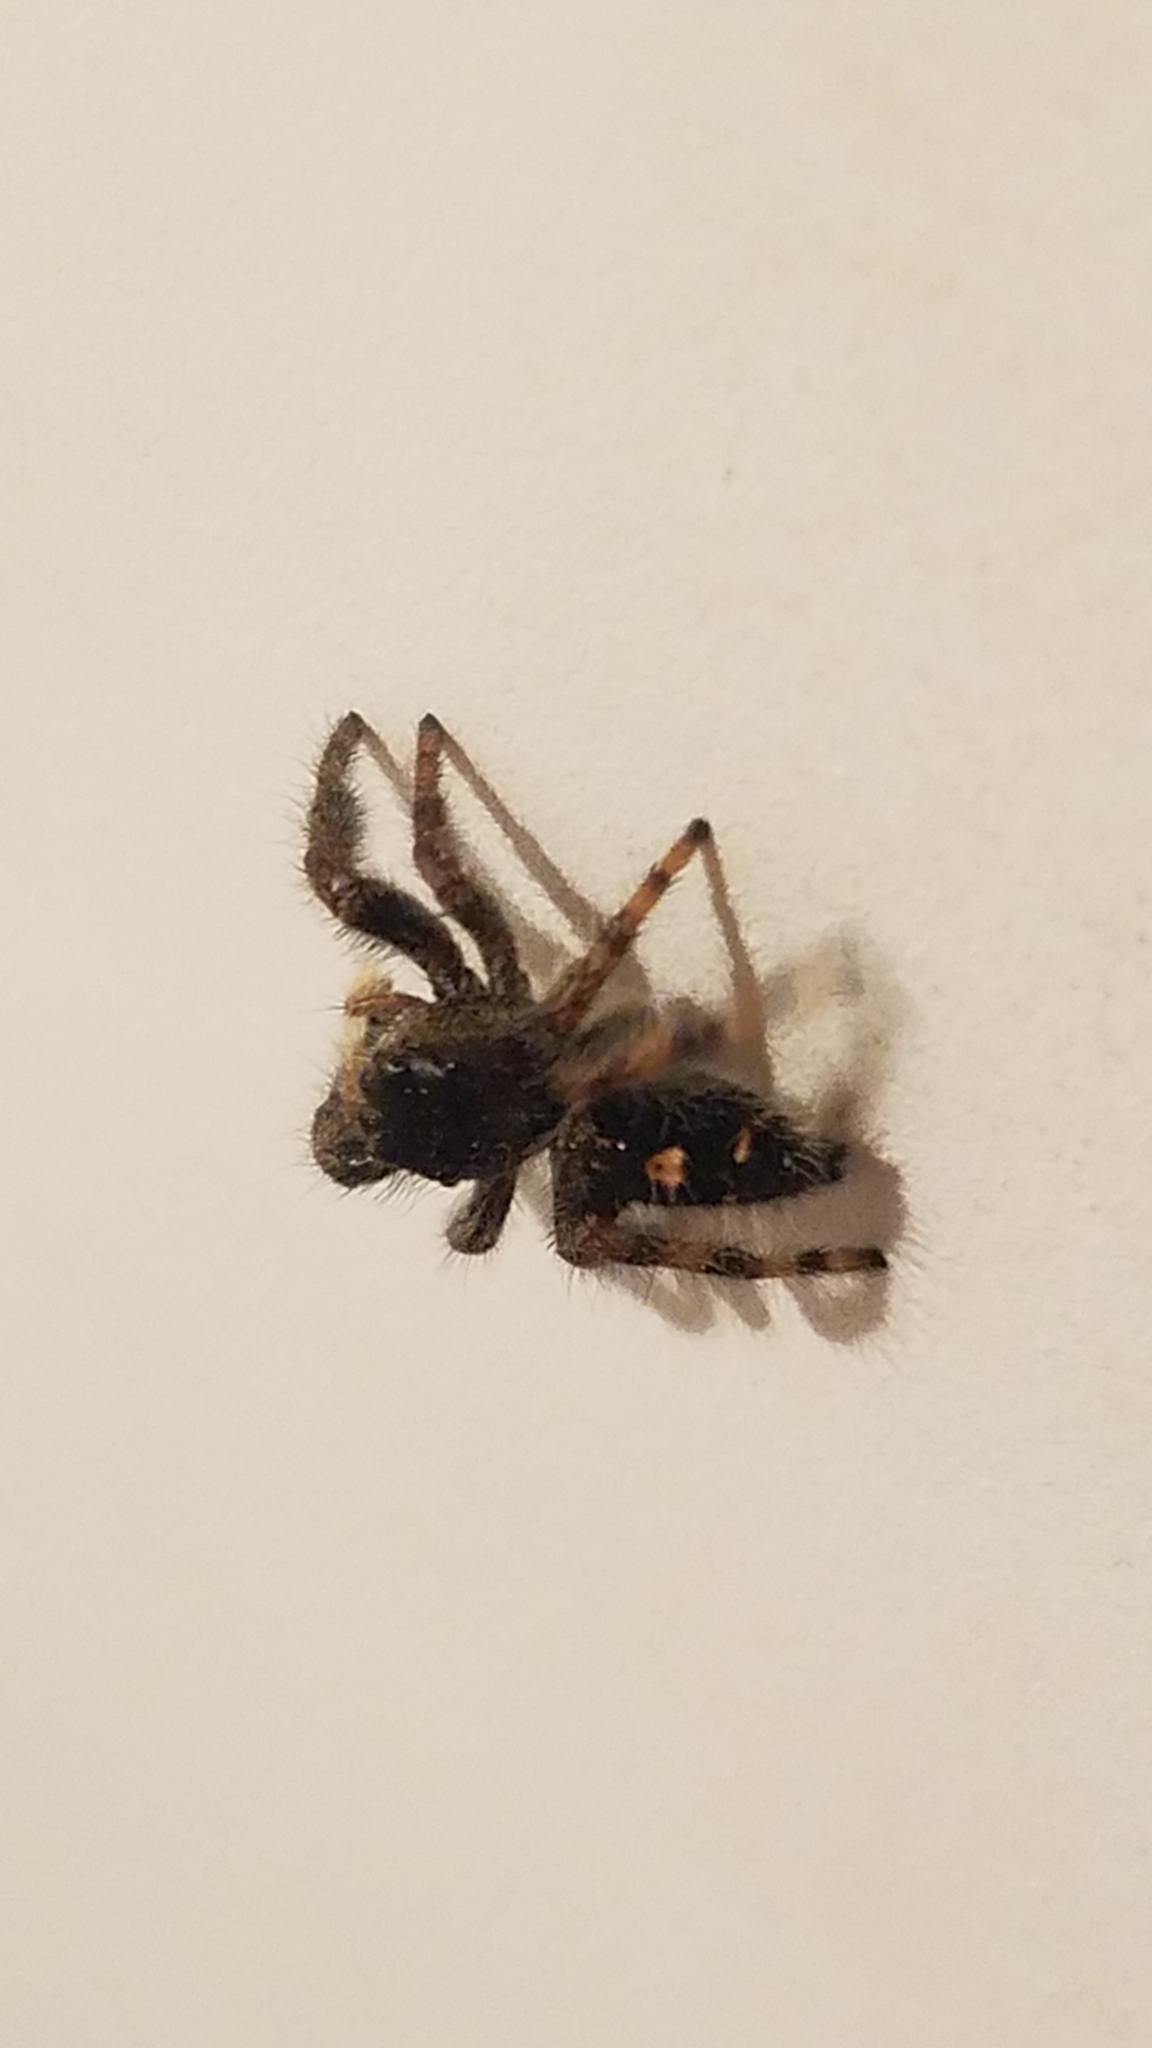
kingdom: Animalia
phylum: Arthropoda
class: Arachnida
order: Araneae
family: Salticidae
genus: Phidippus
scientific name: Phidippus audax
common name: Bold jumper
